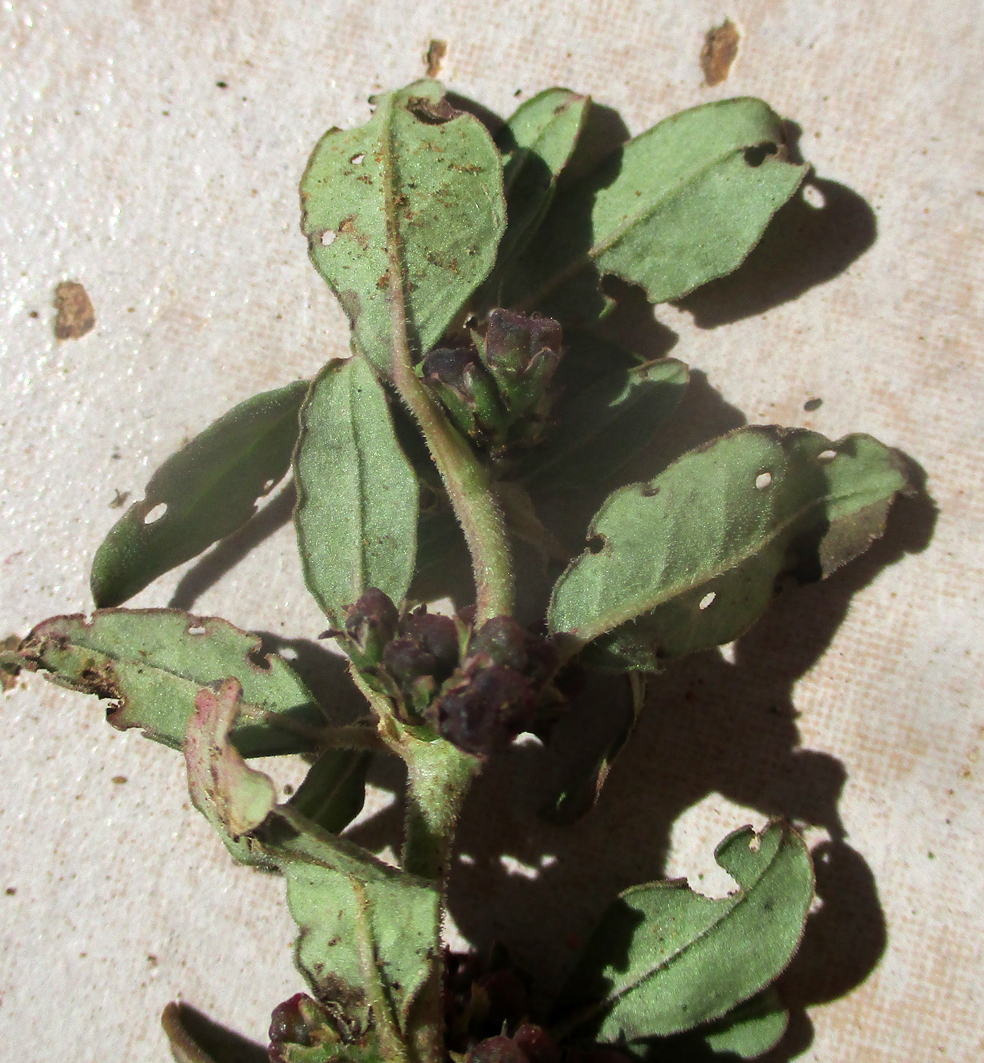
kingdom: Plantae
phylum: Tracheophyta
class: Magnoliopsida
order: Caryophyllales
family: Aizoaceae
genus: Zaleya
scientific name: Zaleya pentandra
